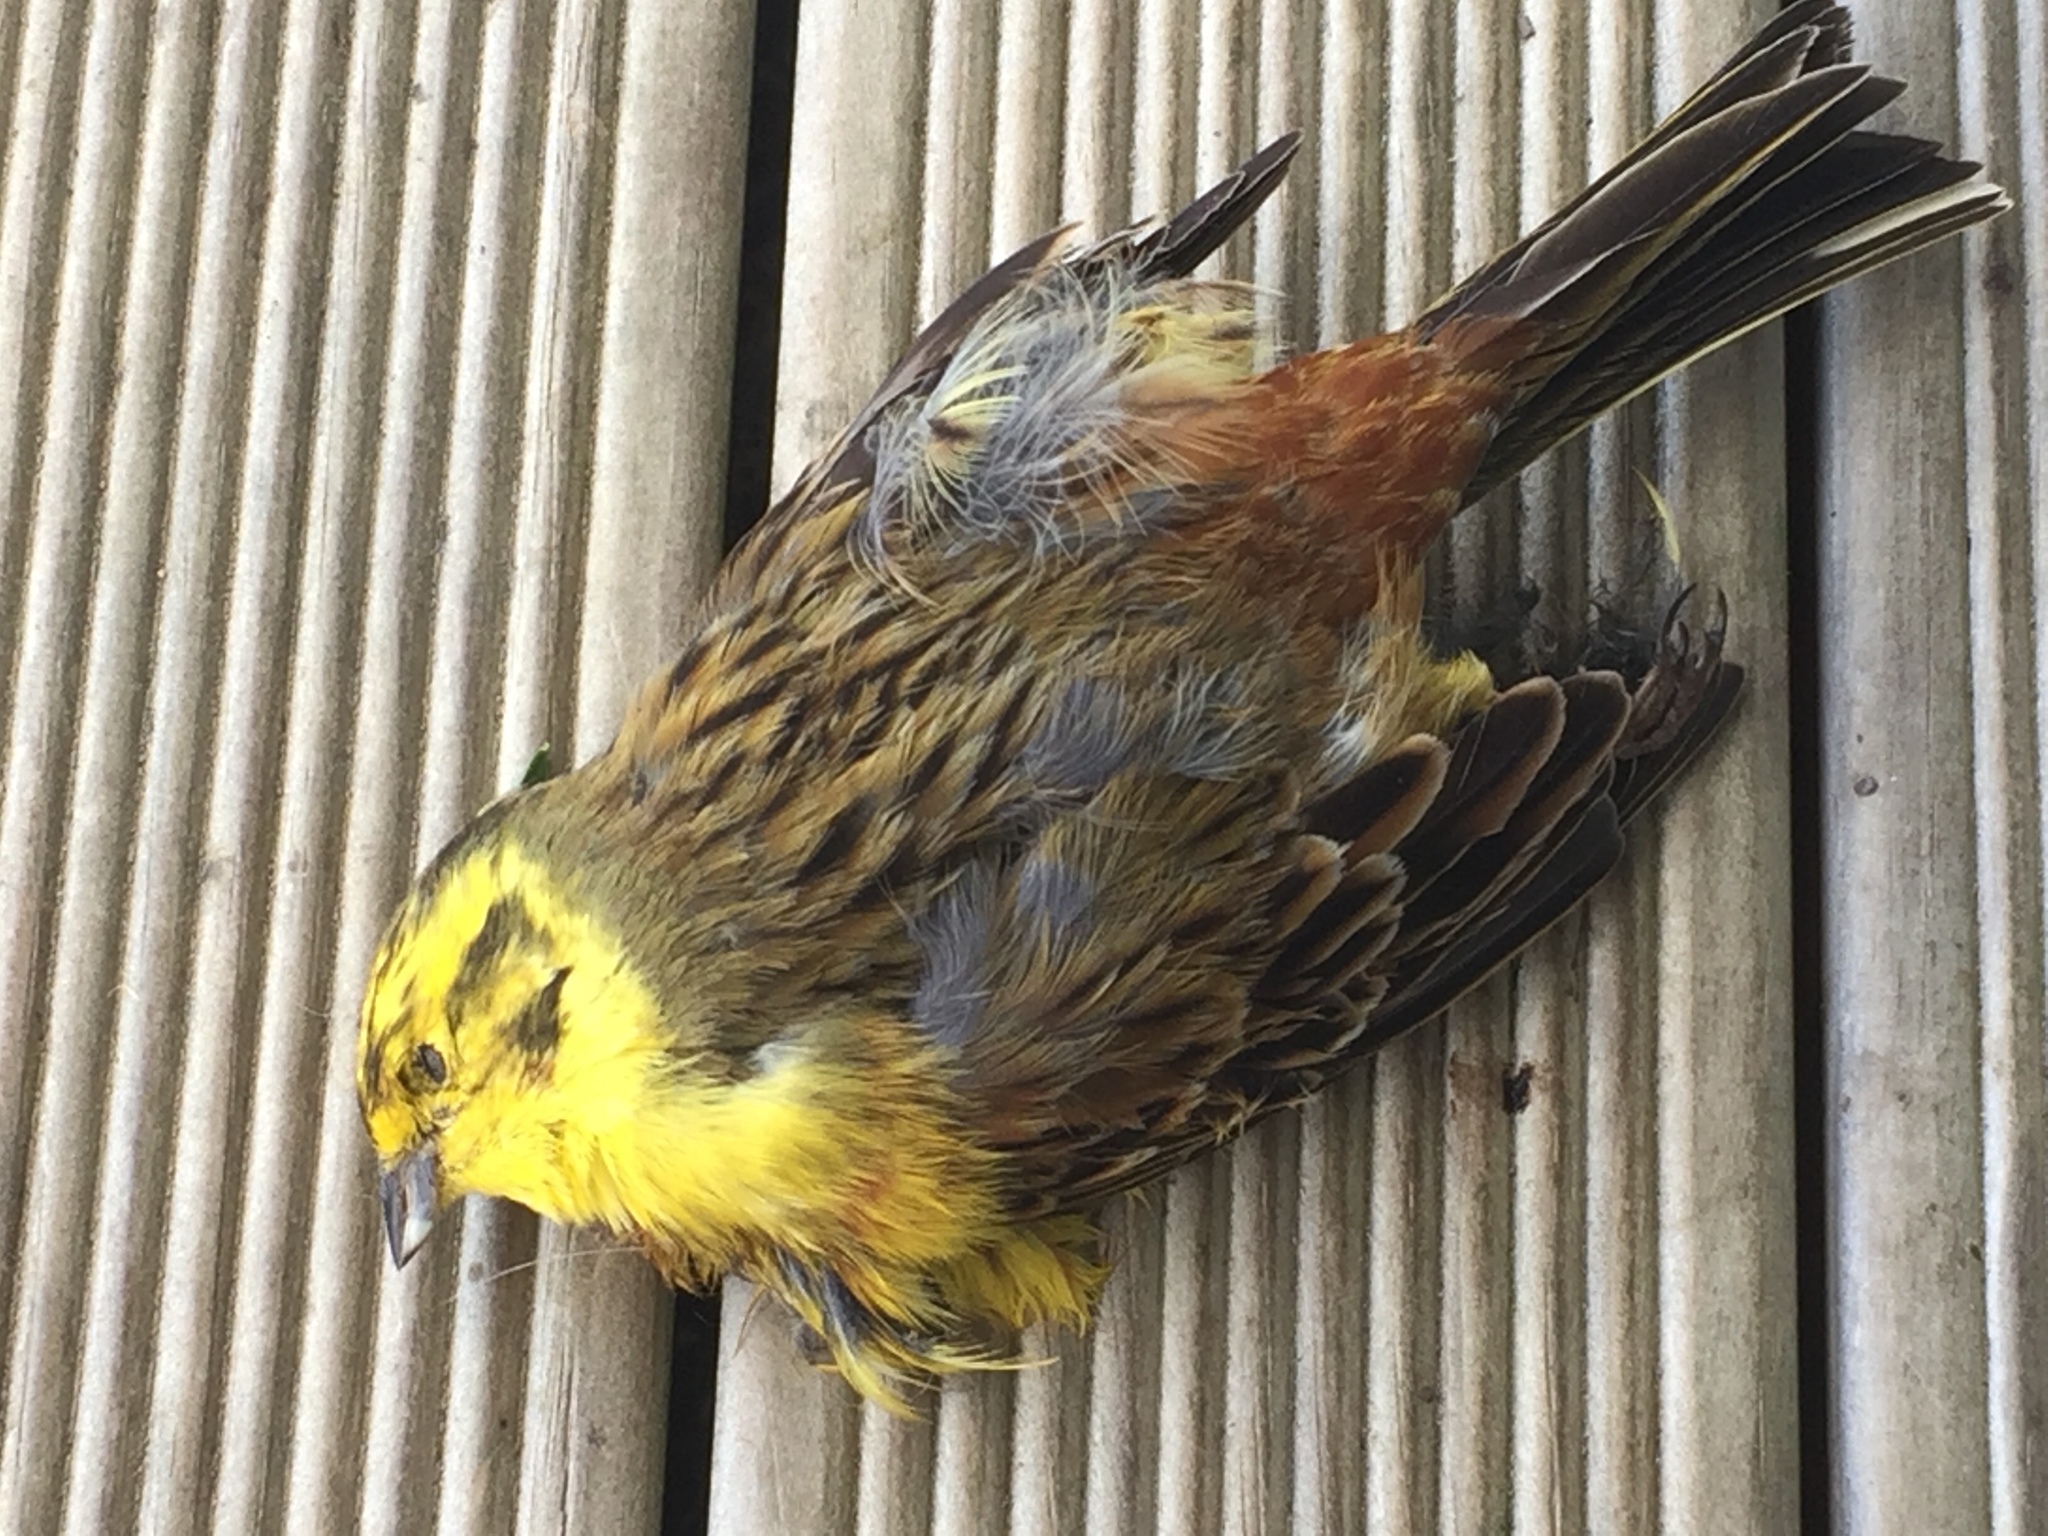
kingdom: Animalia
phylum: Chordata
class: Aves
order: Passeriformes
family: Emberizidae
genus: Emberiza
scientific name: Emberiza citrinella
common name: Yellowhammer
